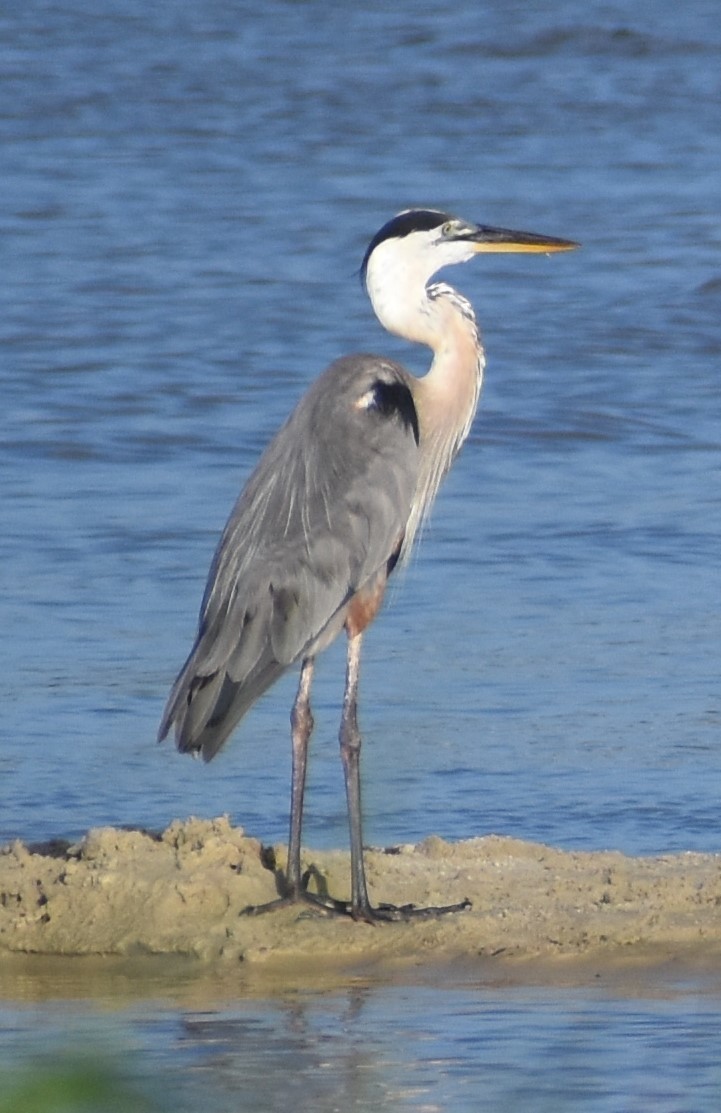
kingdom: Animalia
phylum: Chordata
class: Aves
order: Pelecaniformes
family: Ardeidae
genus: Ardea
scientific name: Ardea herodias
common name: Great blue heron
